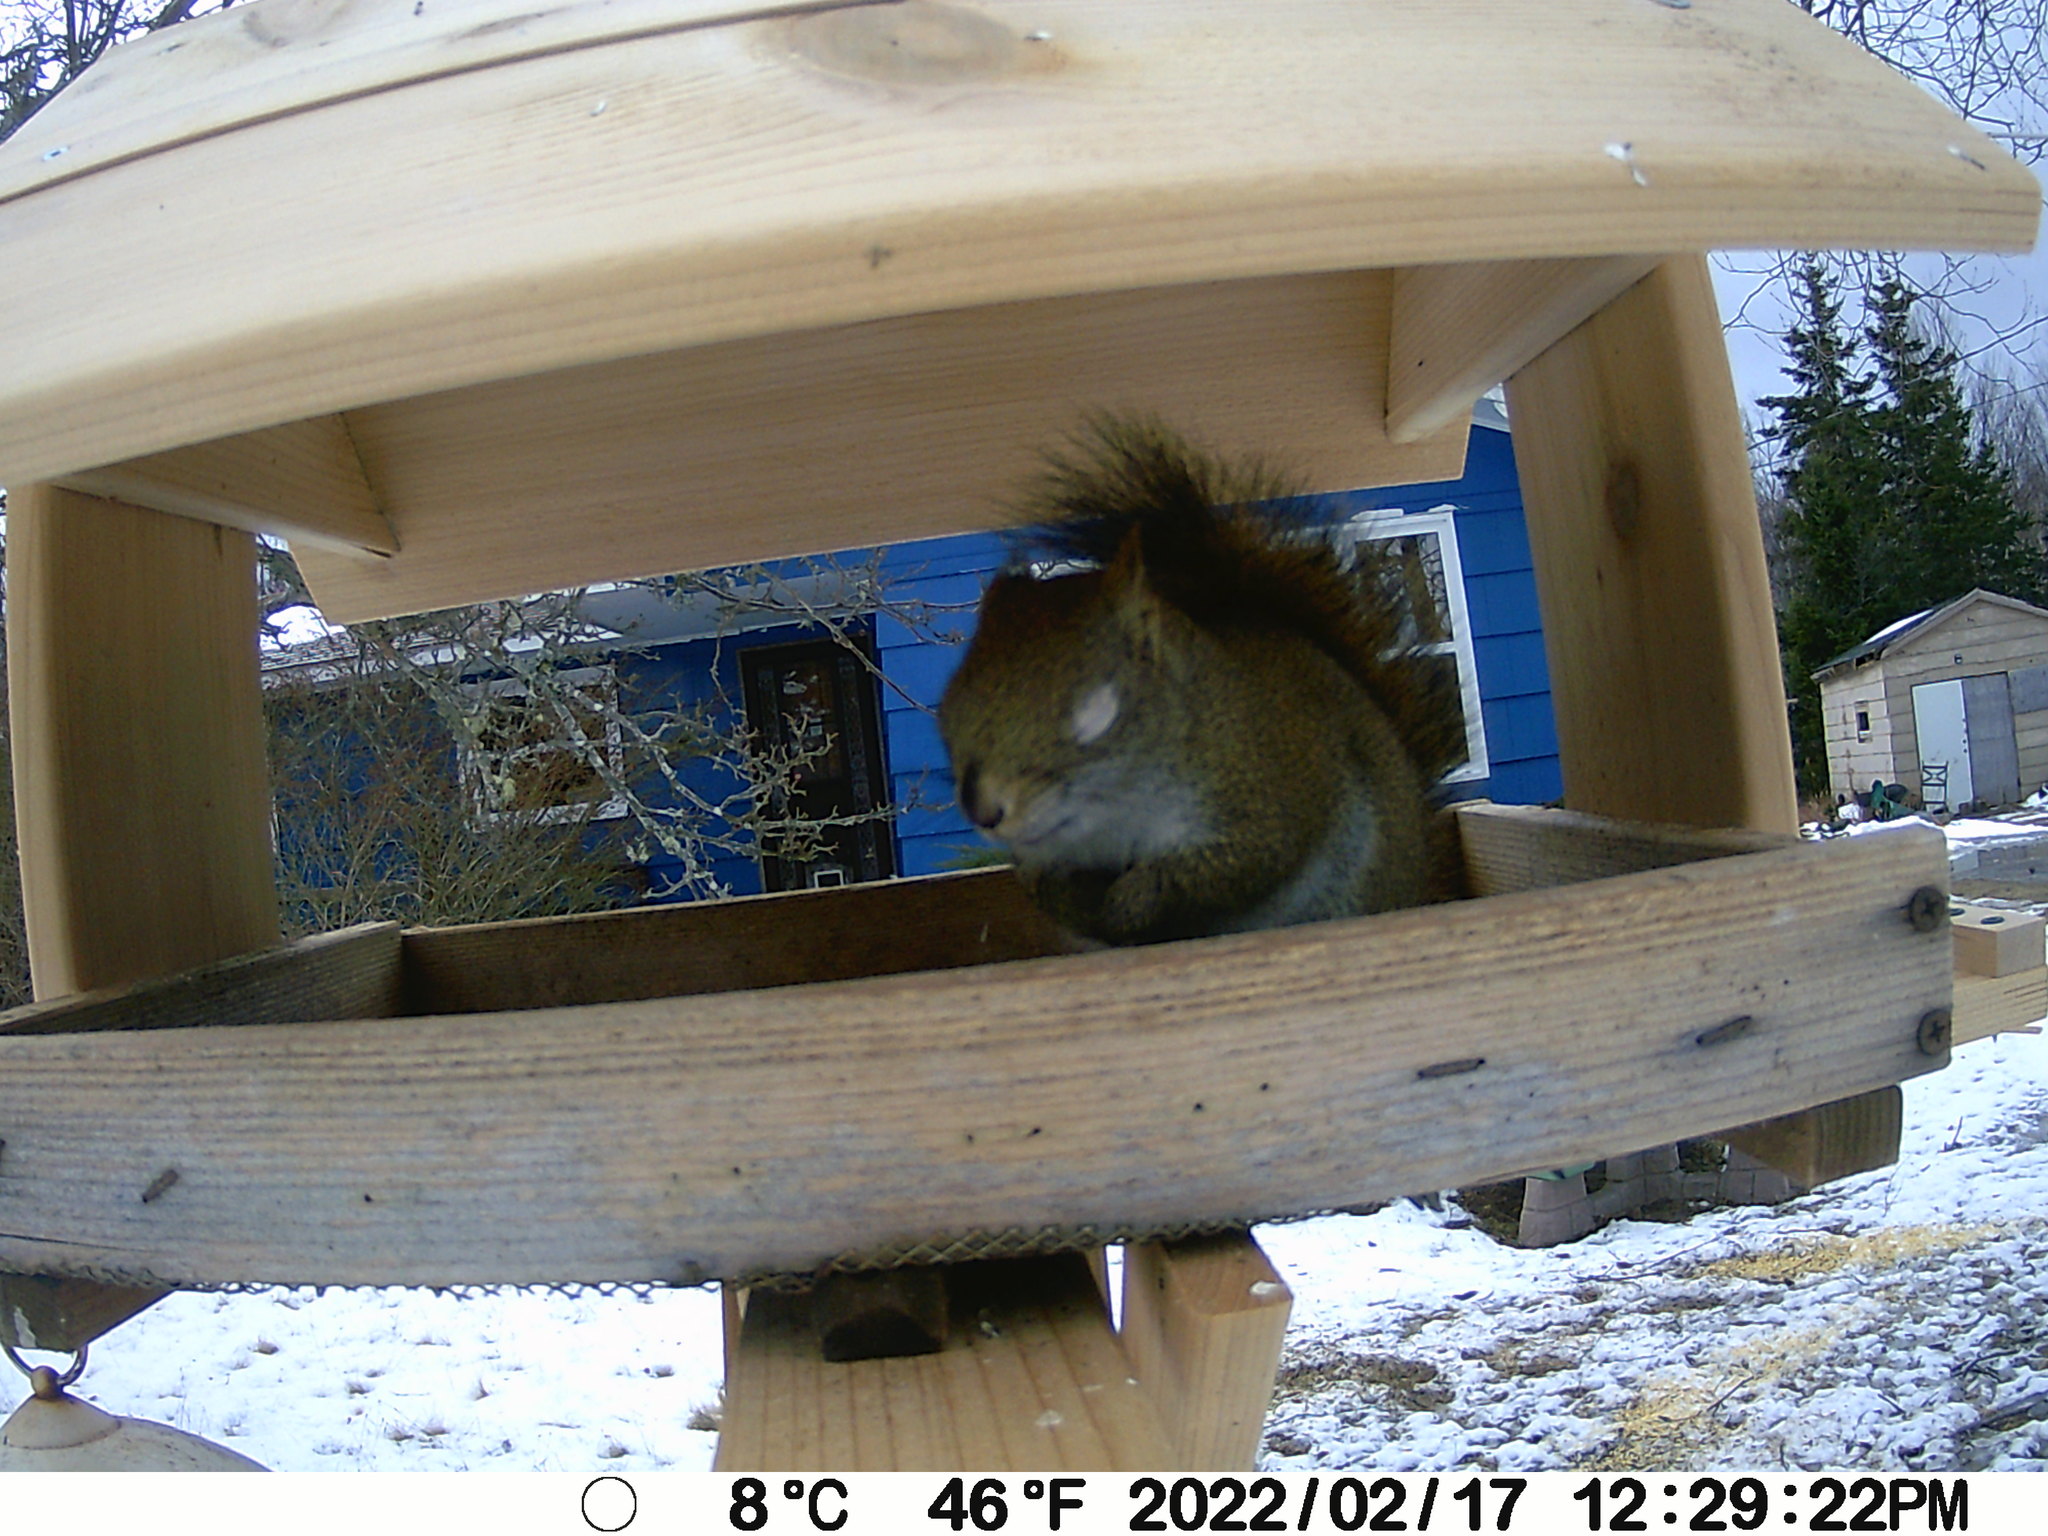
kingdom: Animalia
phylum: Chordata
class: Mammalia
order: Rodentia
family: Sciuridae
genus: Tamiasciurus
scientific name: Tamiasciurus hudsonicus
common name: Red squirrel
